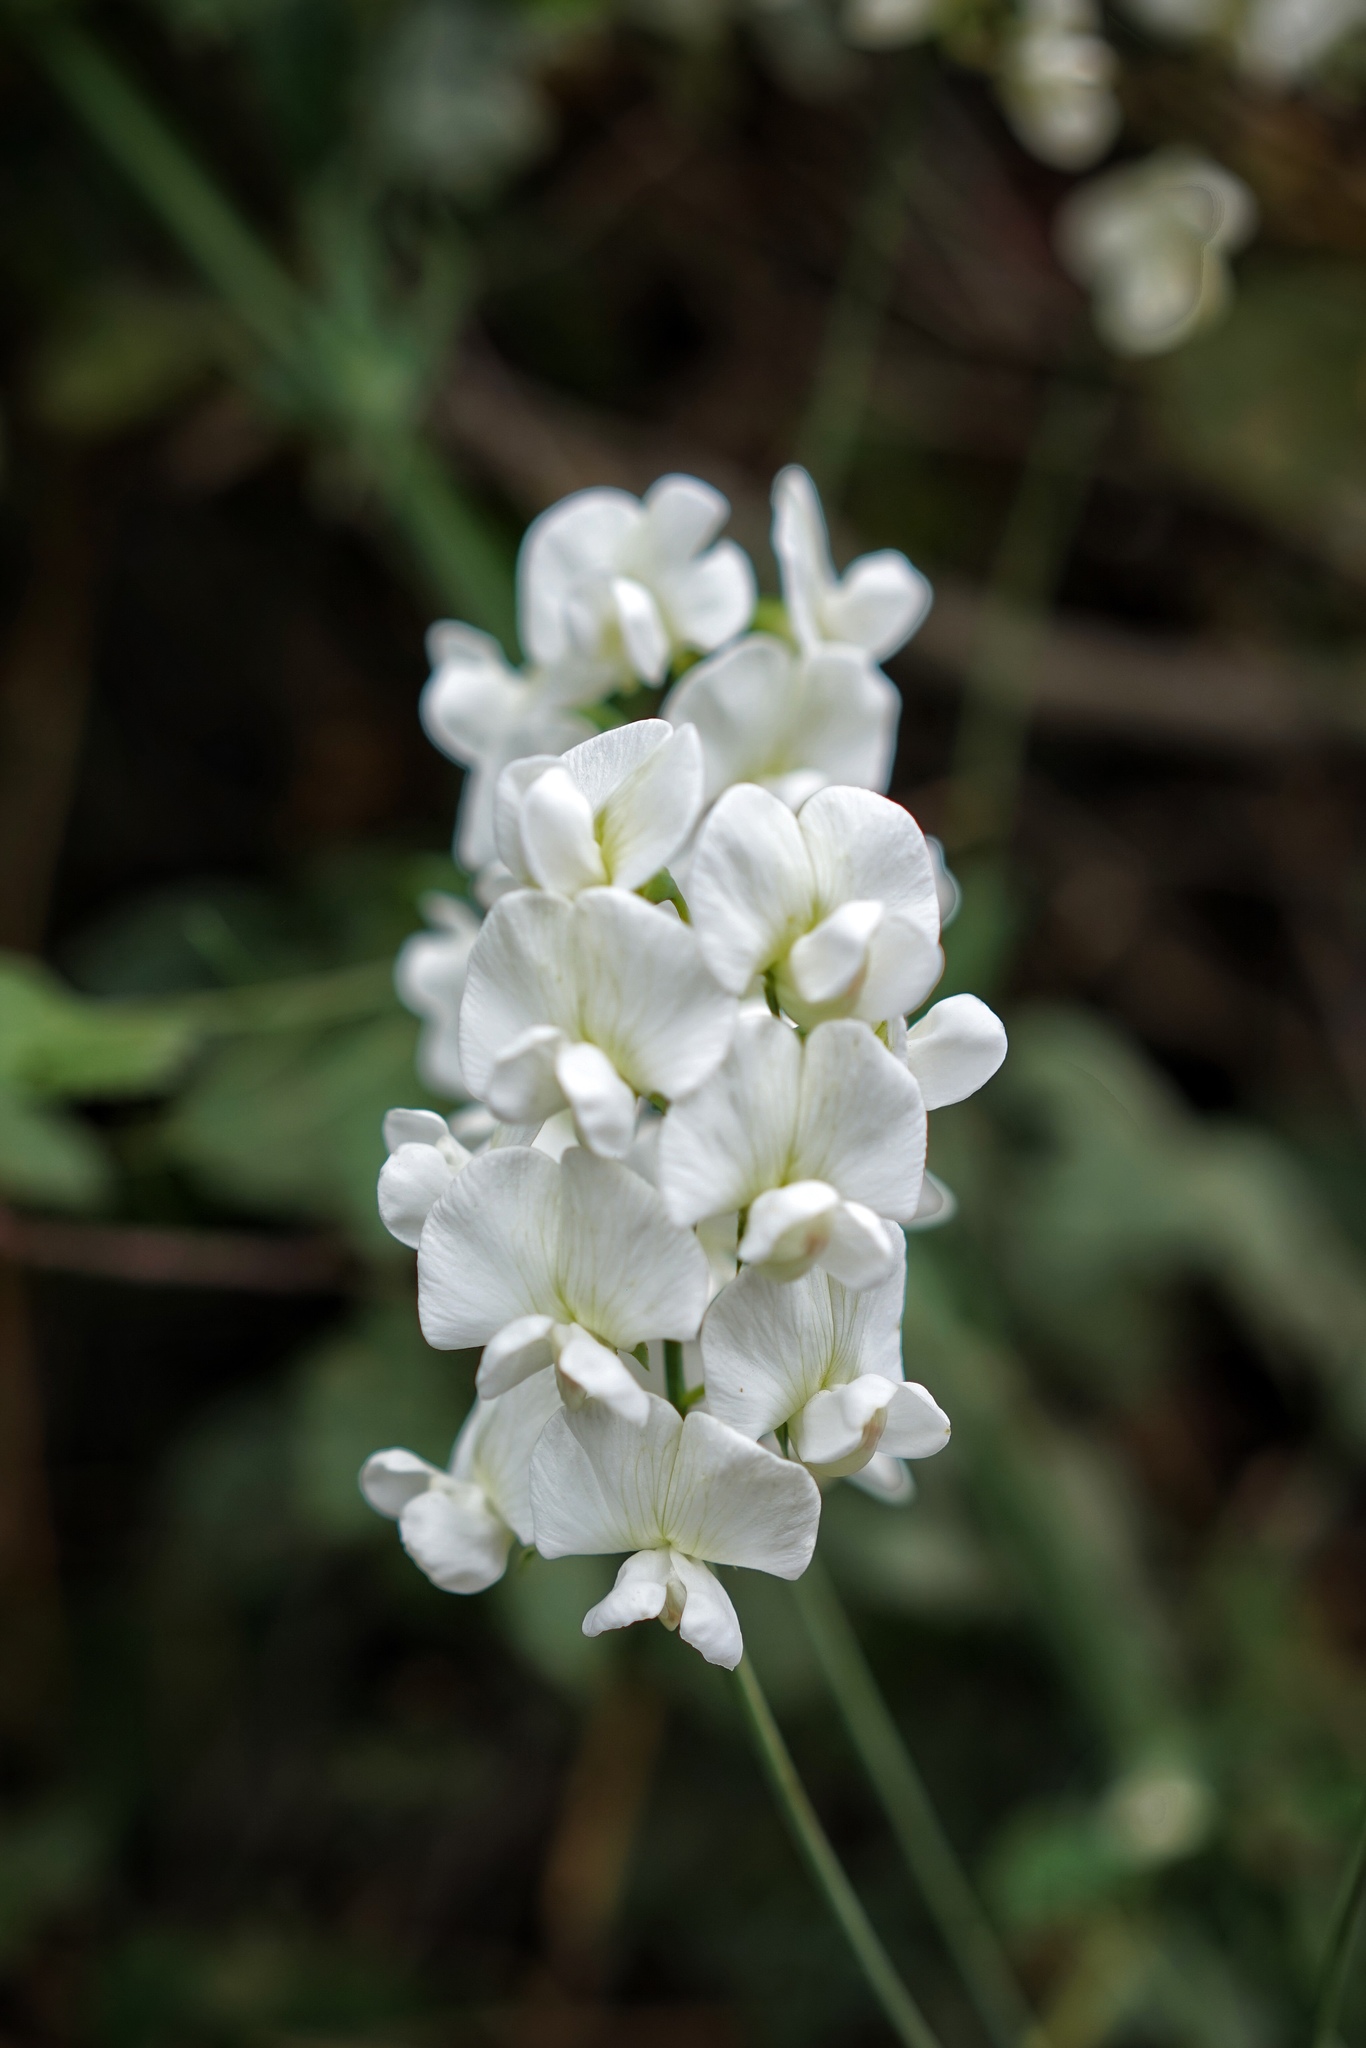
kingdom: Plantae
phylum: Tracheophyta
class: Magnoliopsida
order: Fabales
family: Fabaceae
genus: Lathyrus
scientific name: Lathyrus latifolius
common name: Perennial pea
